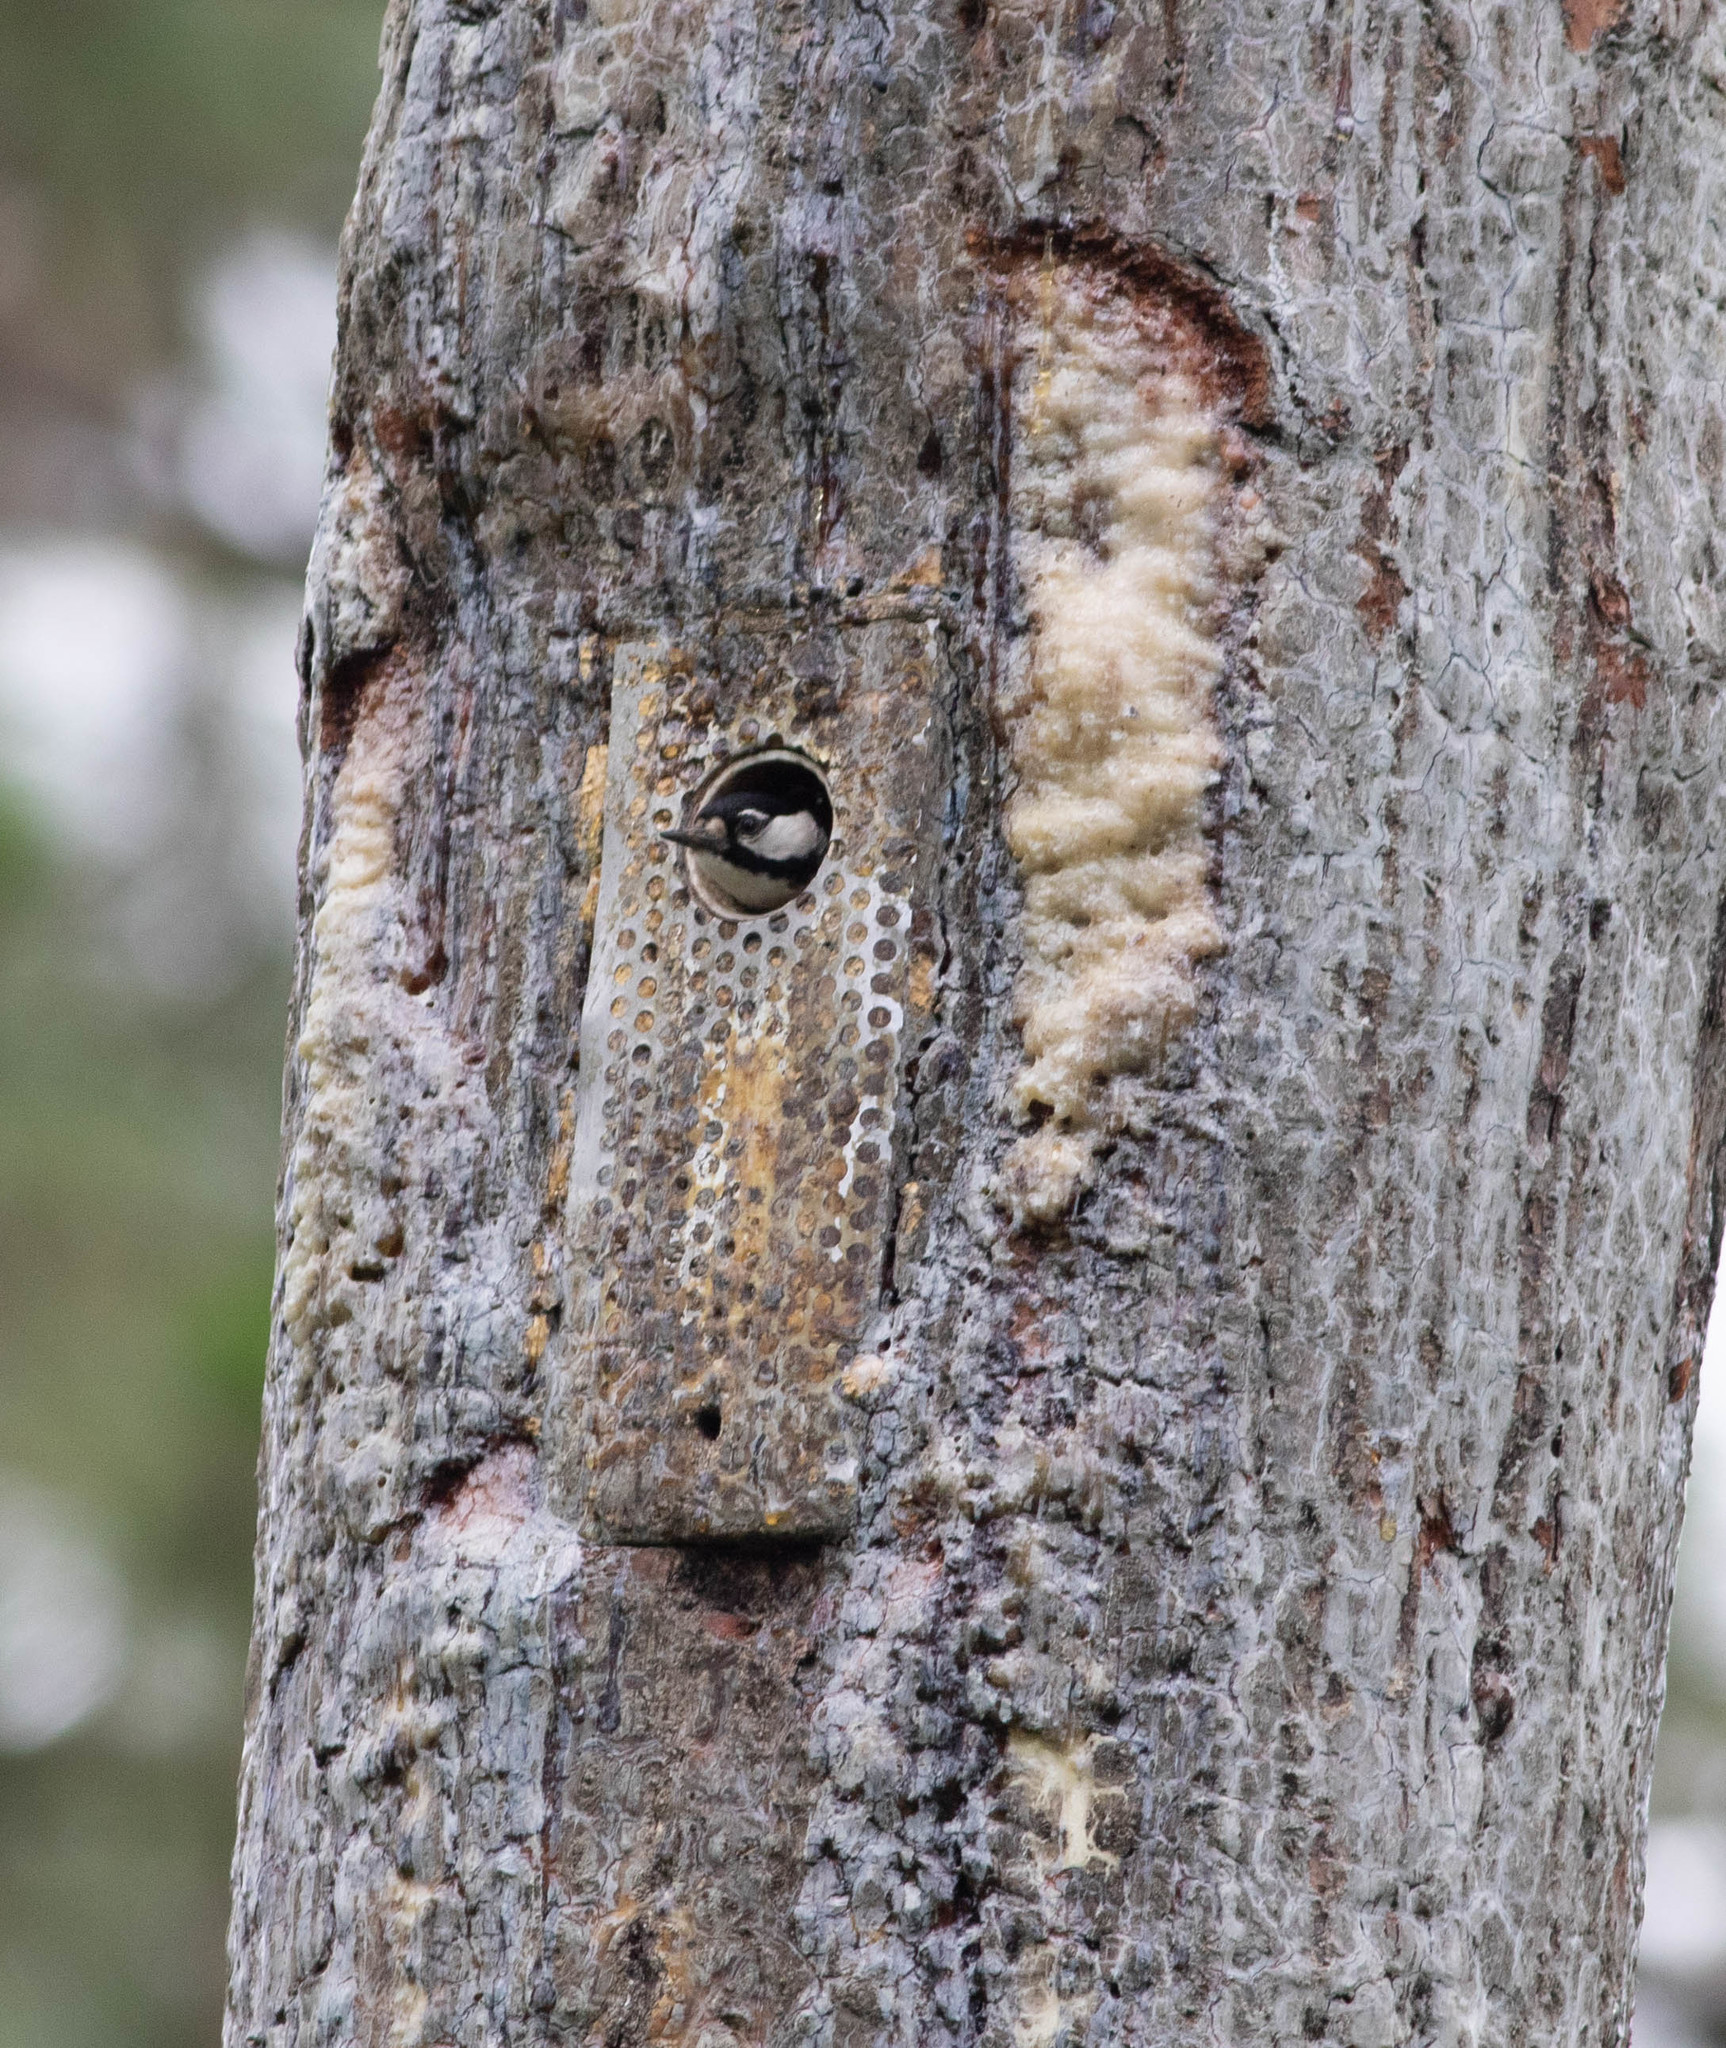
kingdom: Animalia
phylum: Chordata
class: Aves
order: Piciformes
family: Picidae
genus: Leuconotopicus
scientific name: Leuconotopicus borealis
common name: Red-cockaded woodpecker
